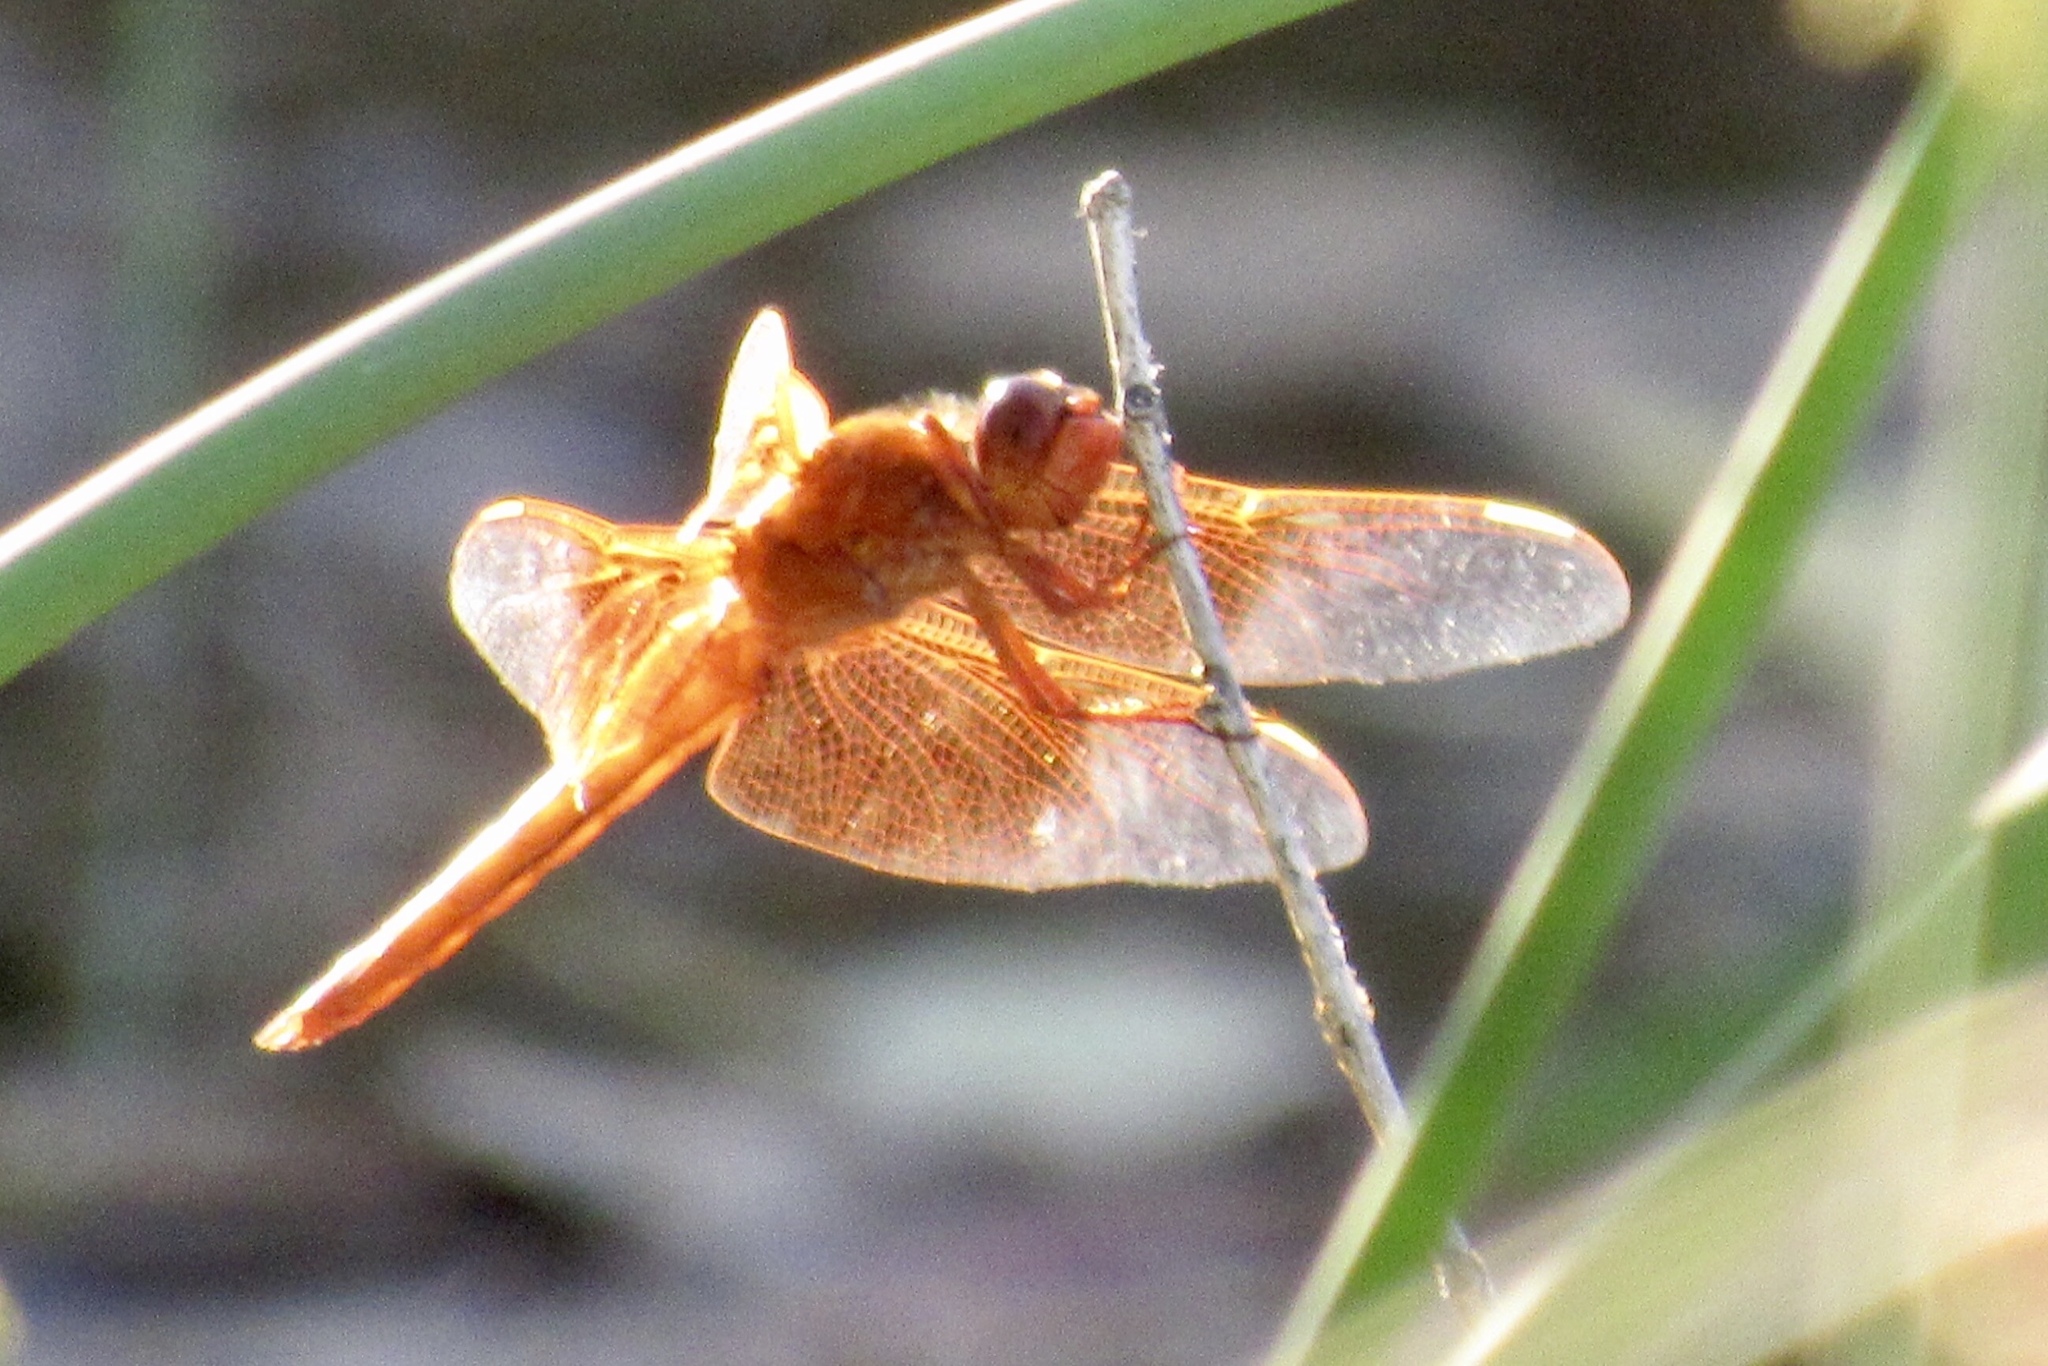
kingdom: Animalia
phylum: Arthropoda
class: Insecta
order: Odonata
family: Libellulidae
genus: Libellula
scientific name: Libellula saturata
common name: Flame skimmer
